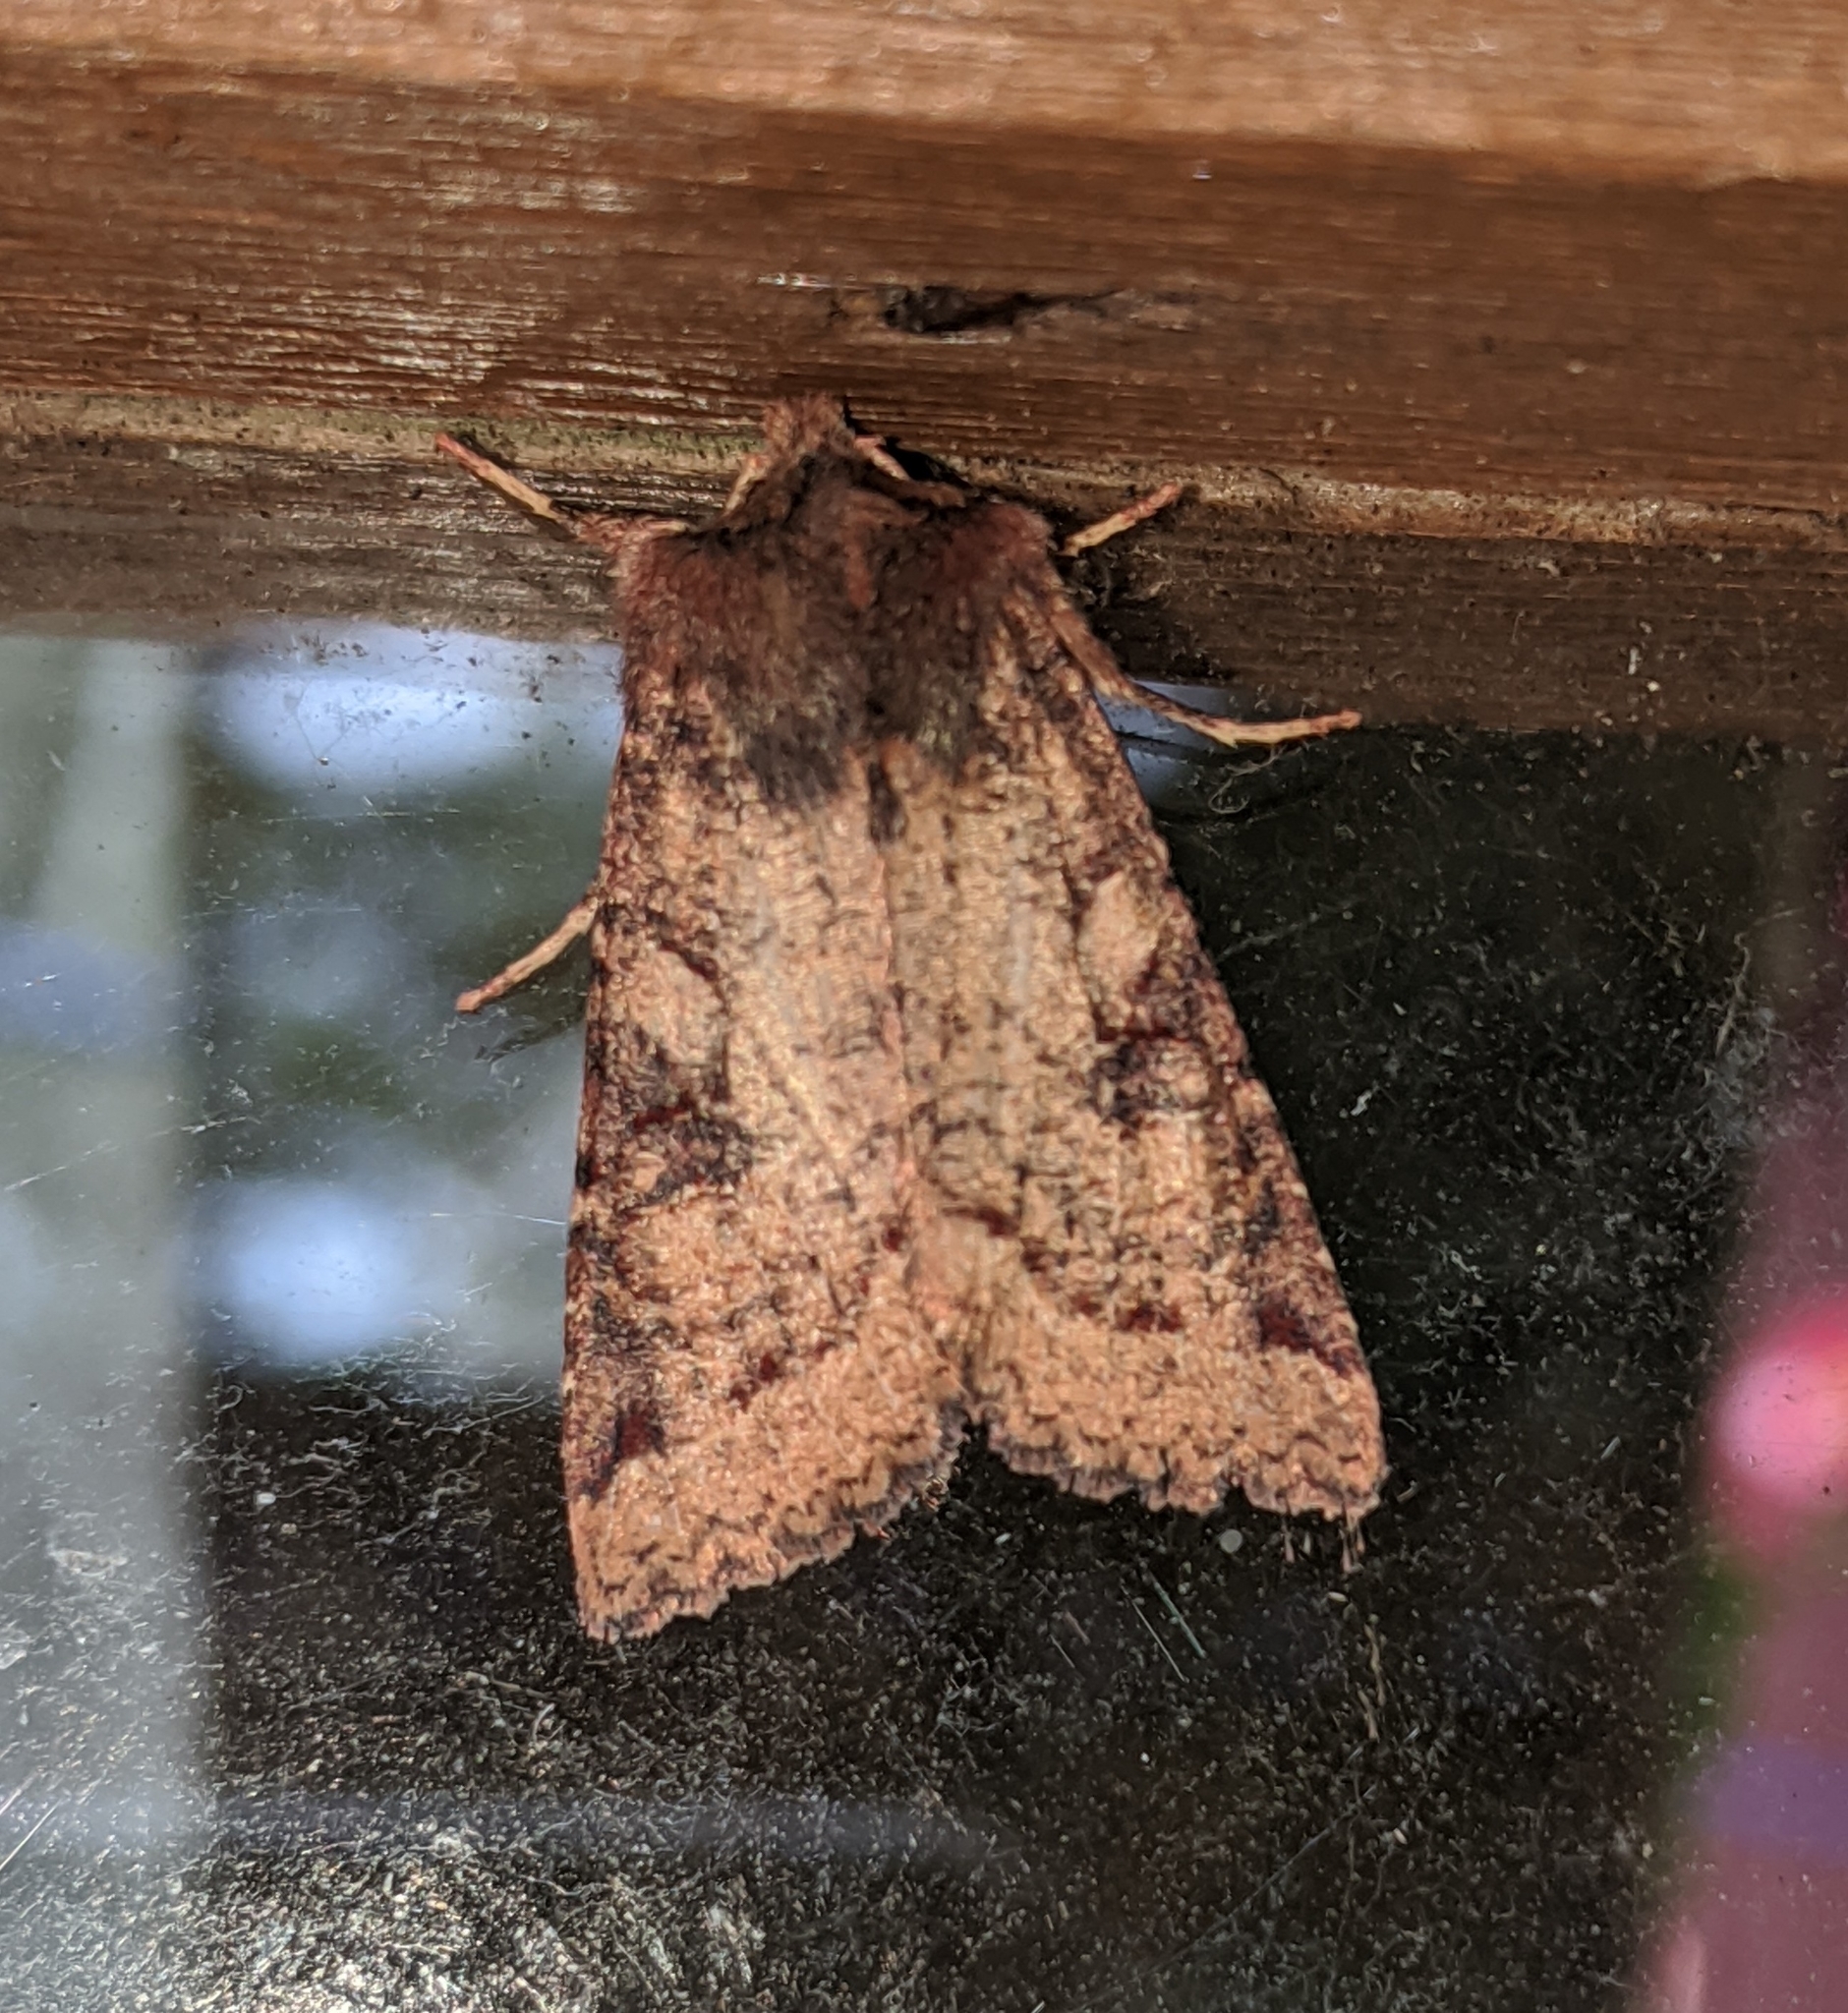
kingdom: Animalia
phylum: Arthropoda
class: Insecta
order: Lepidoptera
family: Noctuidae
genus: Orthosia
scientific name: Orthosia praeses
